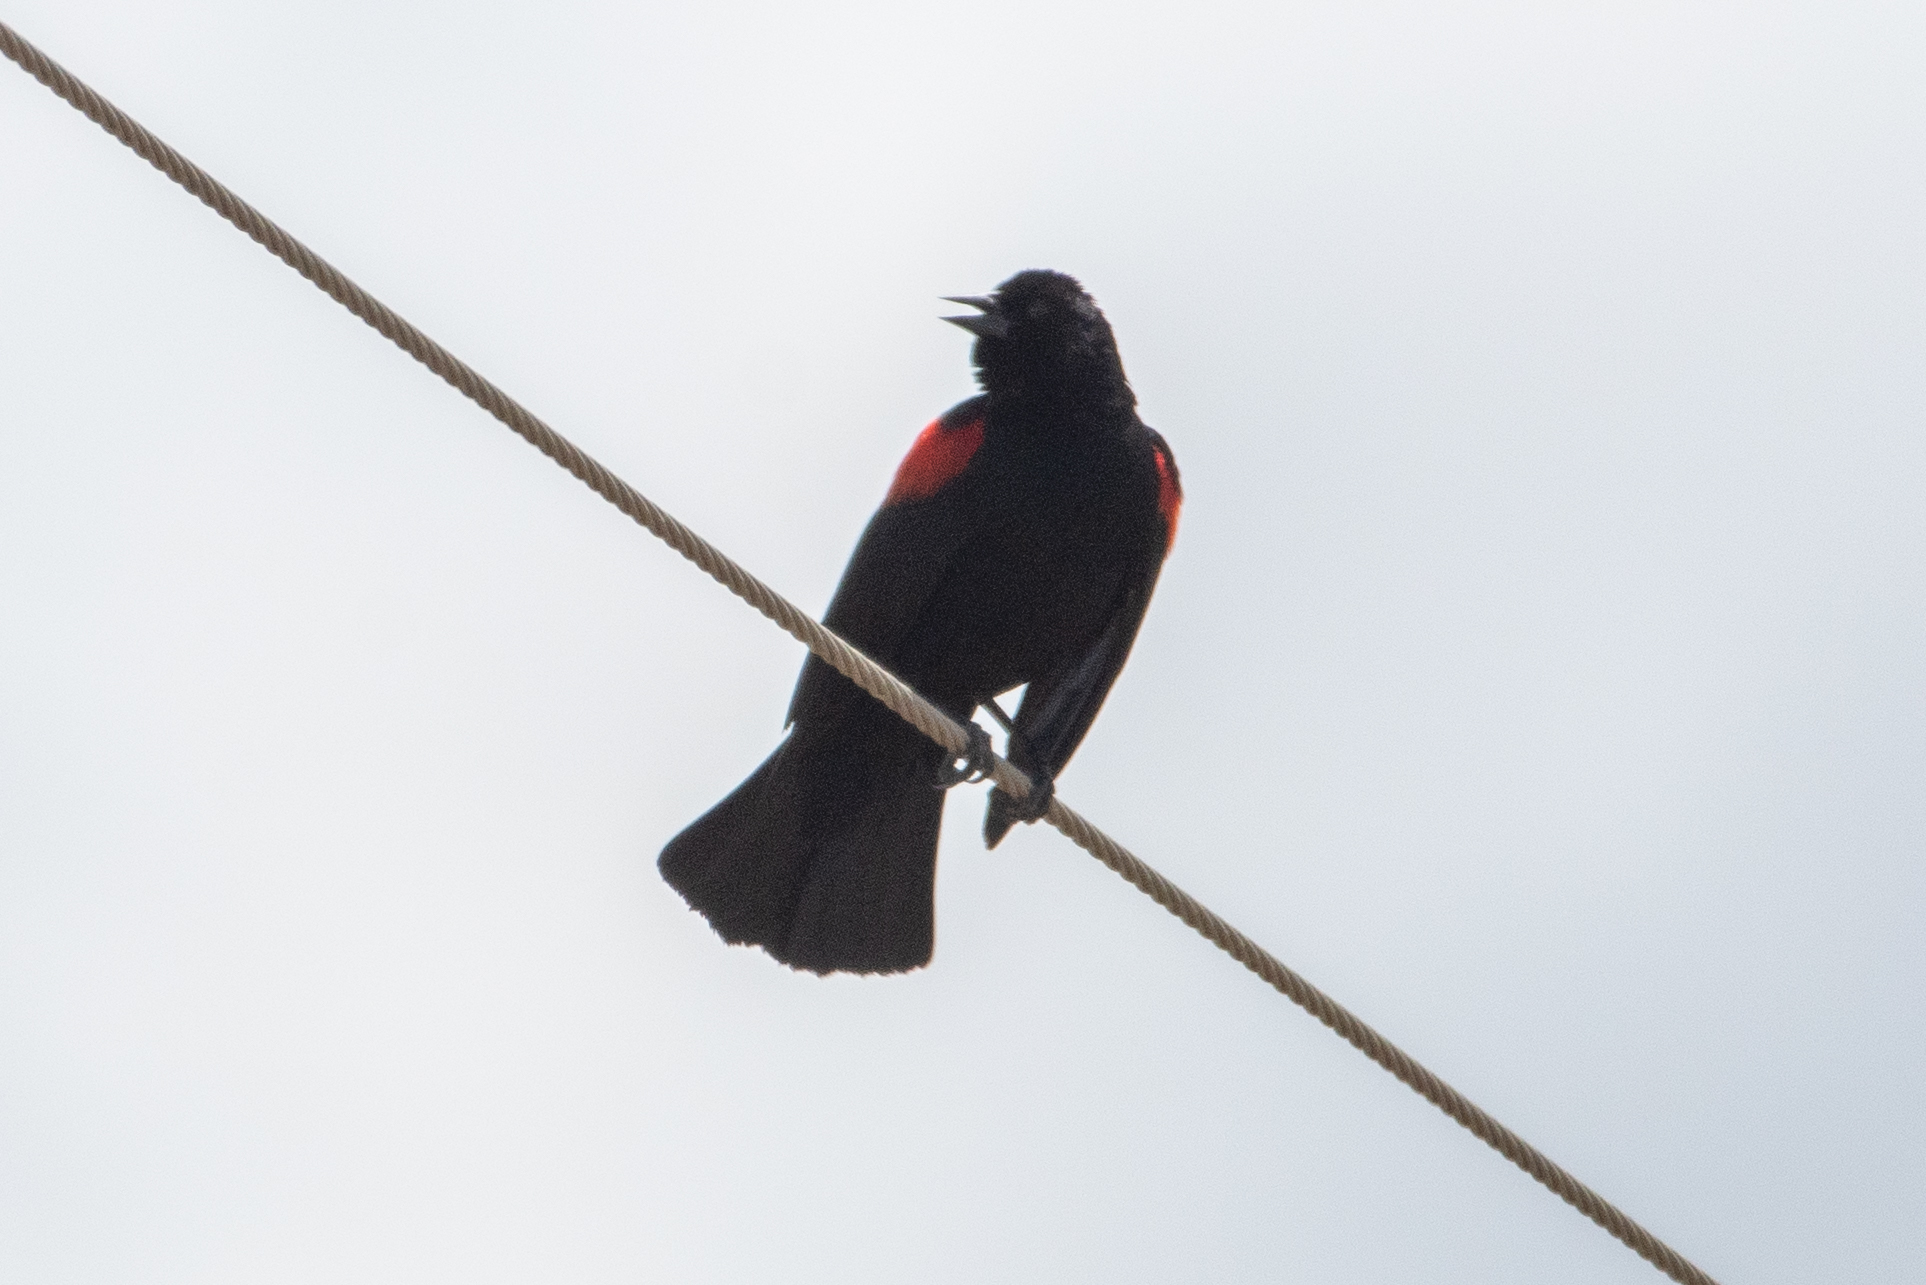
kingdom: Animalia
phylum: Chordata
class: Aves
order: Passeriformes
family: Icteridae
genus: Agelaius
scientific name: Agelaius phoeniceus
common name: Red-winged blackbird
